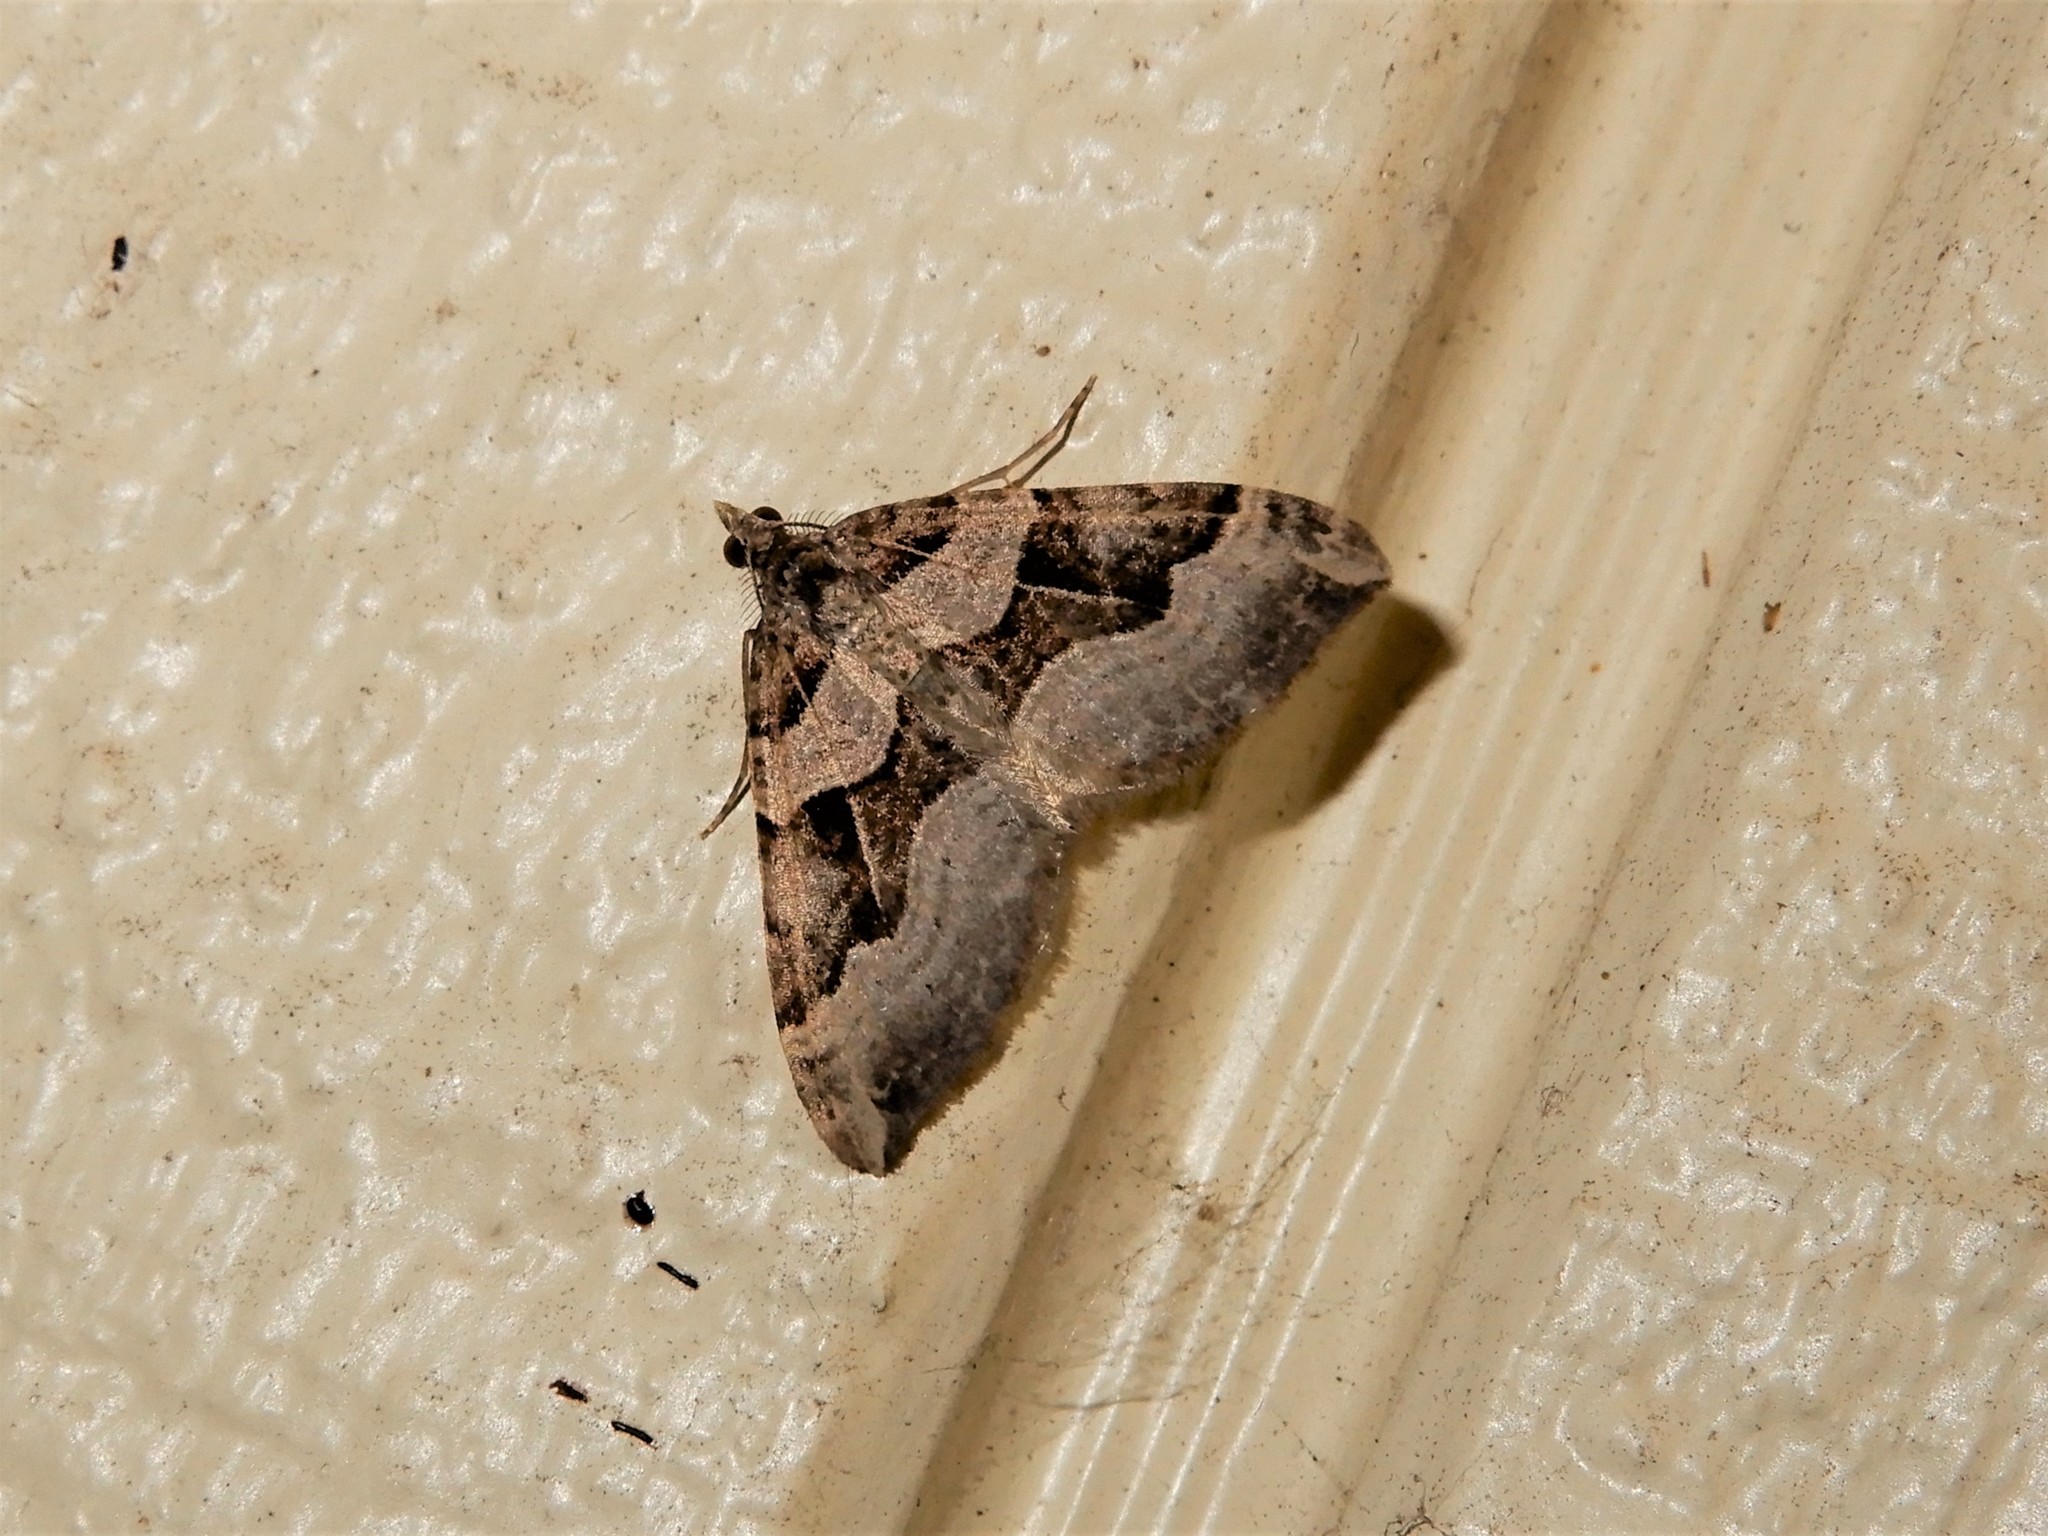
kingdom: Animalia
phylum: Arthropoda
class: Insecta
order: Lepidoptera
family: Geometridae
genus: Xanthorhoe
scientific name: Xanthorhoe semifissata
